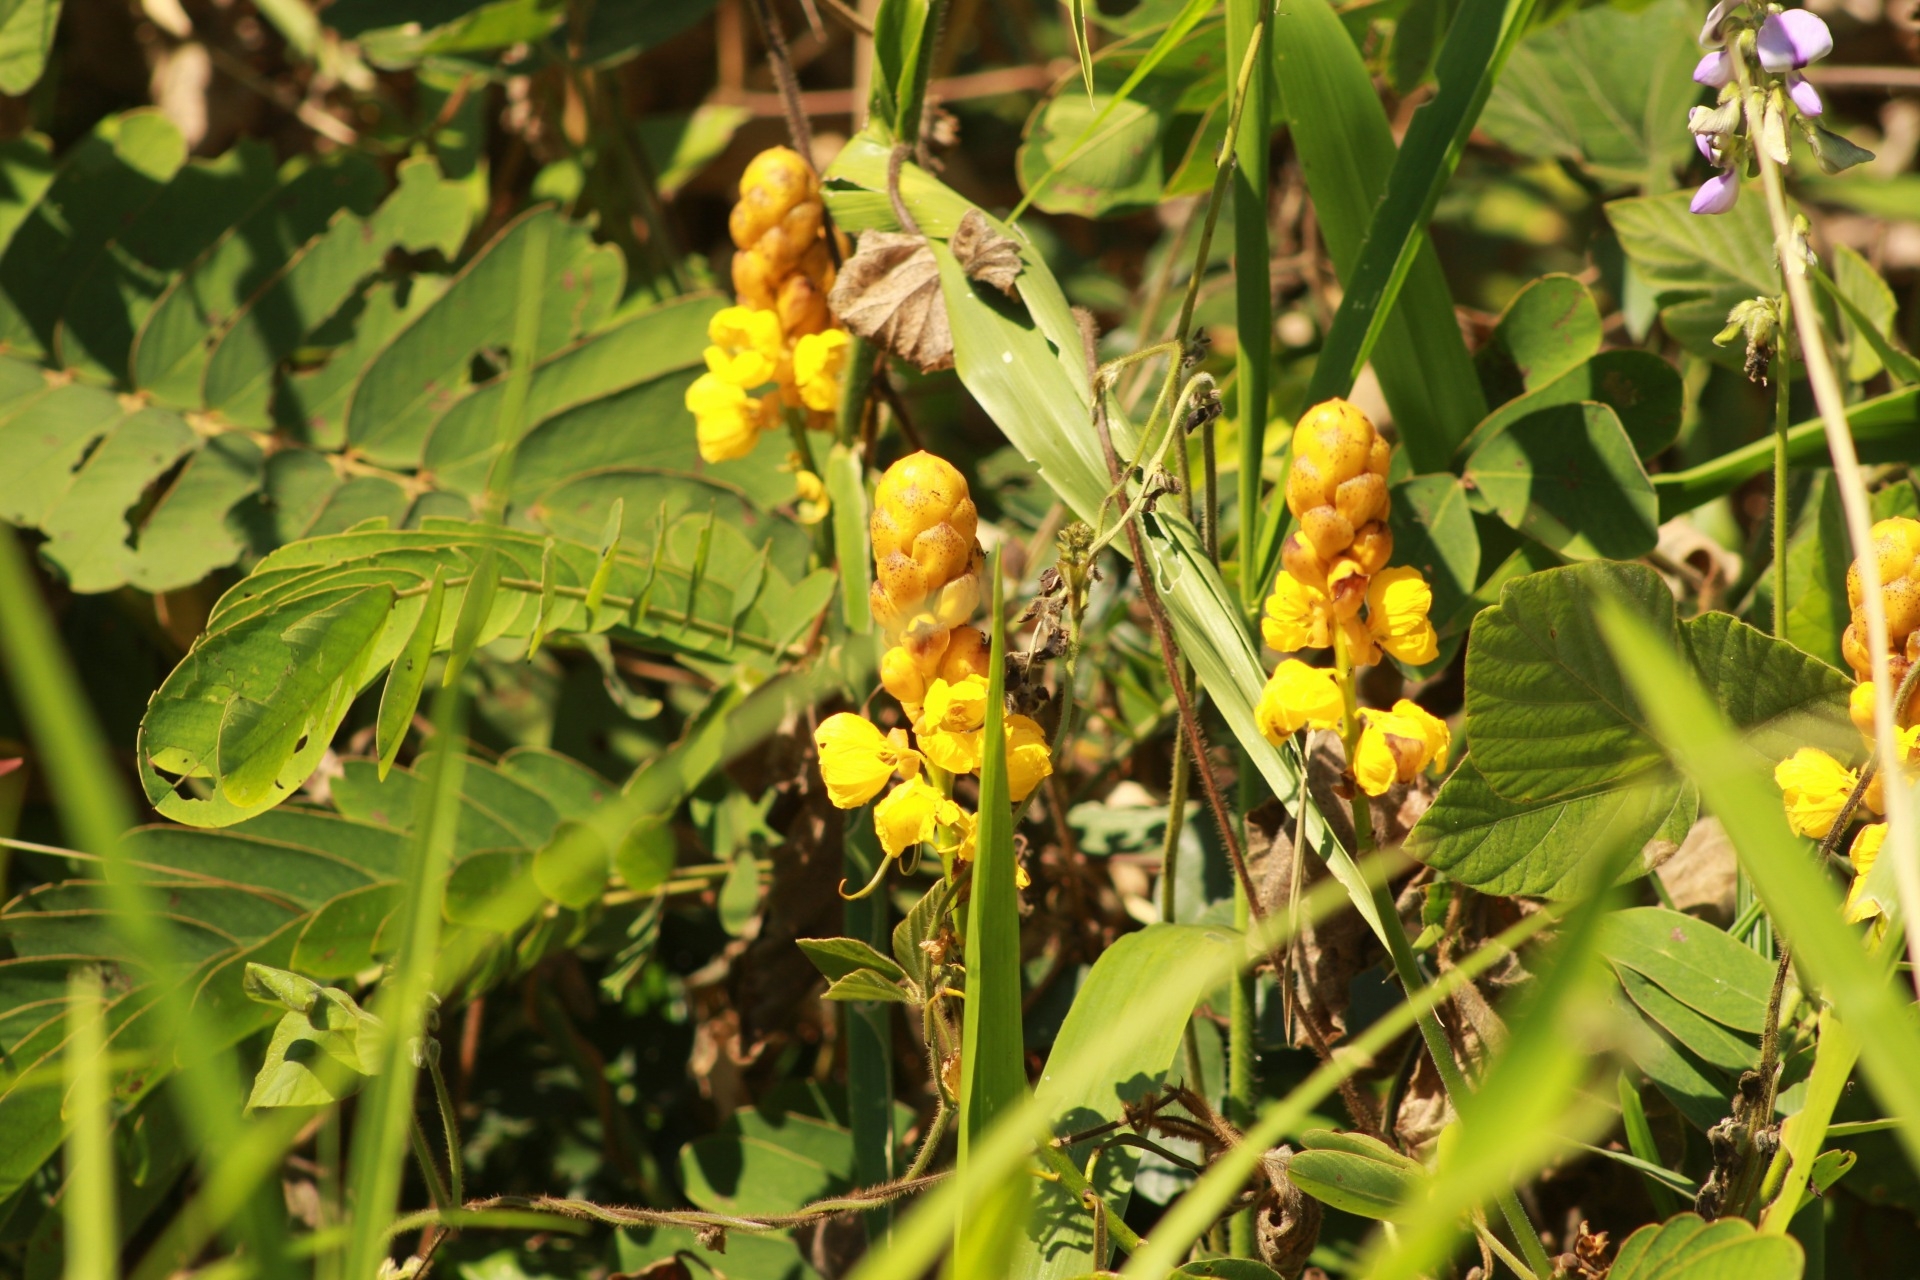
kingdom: Plantae
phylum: Tracheophyta
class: Magnoliopsida
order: Fabales
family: Fabaceae
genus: Senna
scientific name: Senna reticulata
